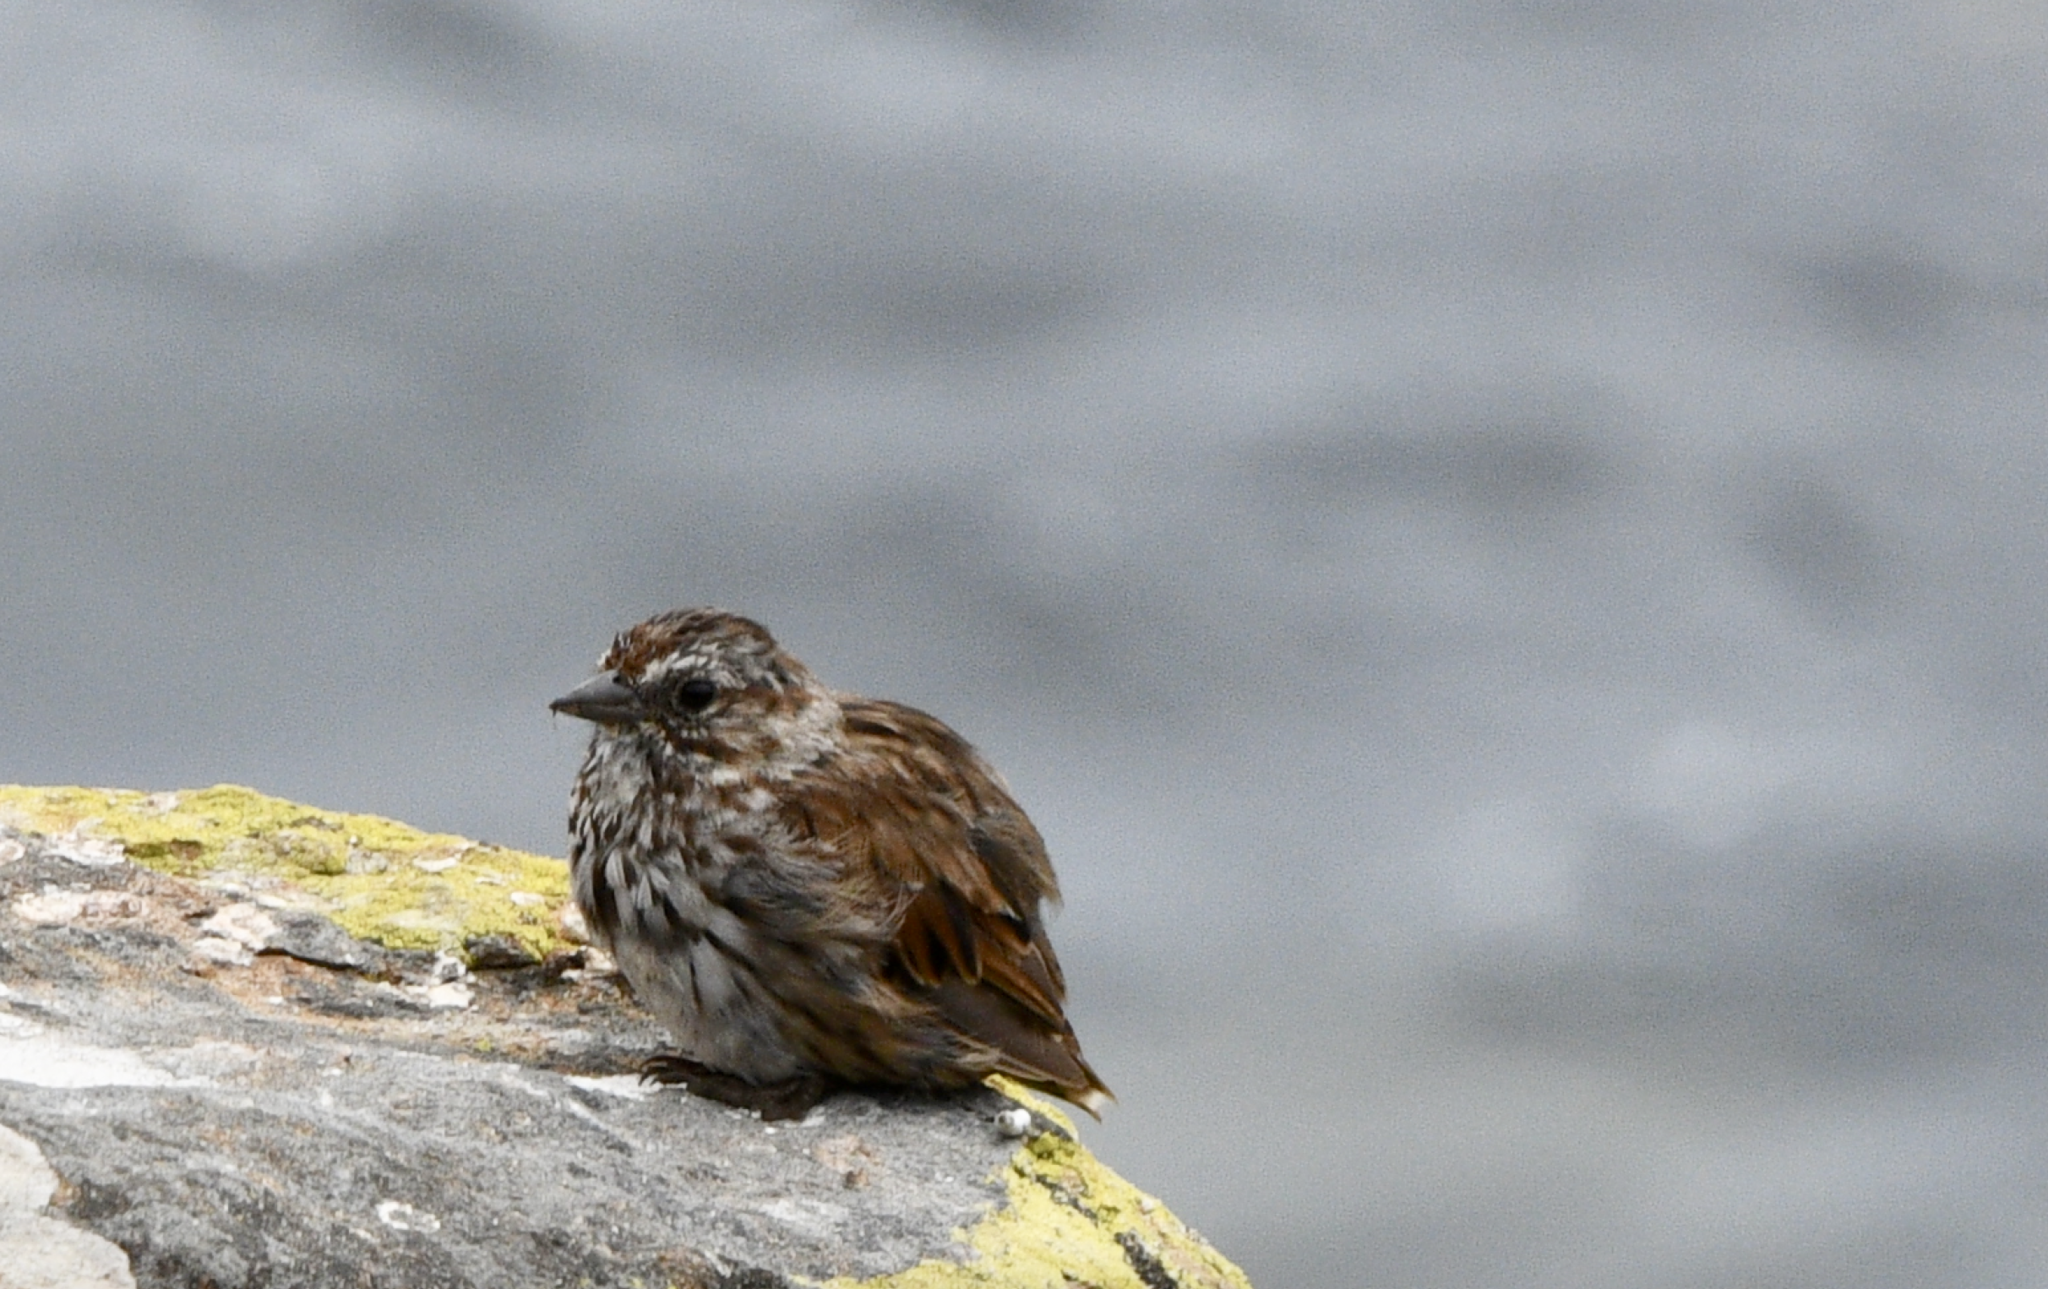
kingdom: Animalia
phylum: Chordata
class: Aves
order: Passeriformes
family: Passerellidae
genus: Melospiza
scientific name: Melospiza melodia
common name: Song sparrow
